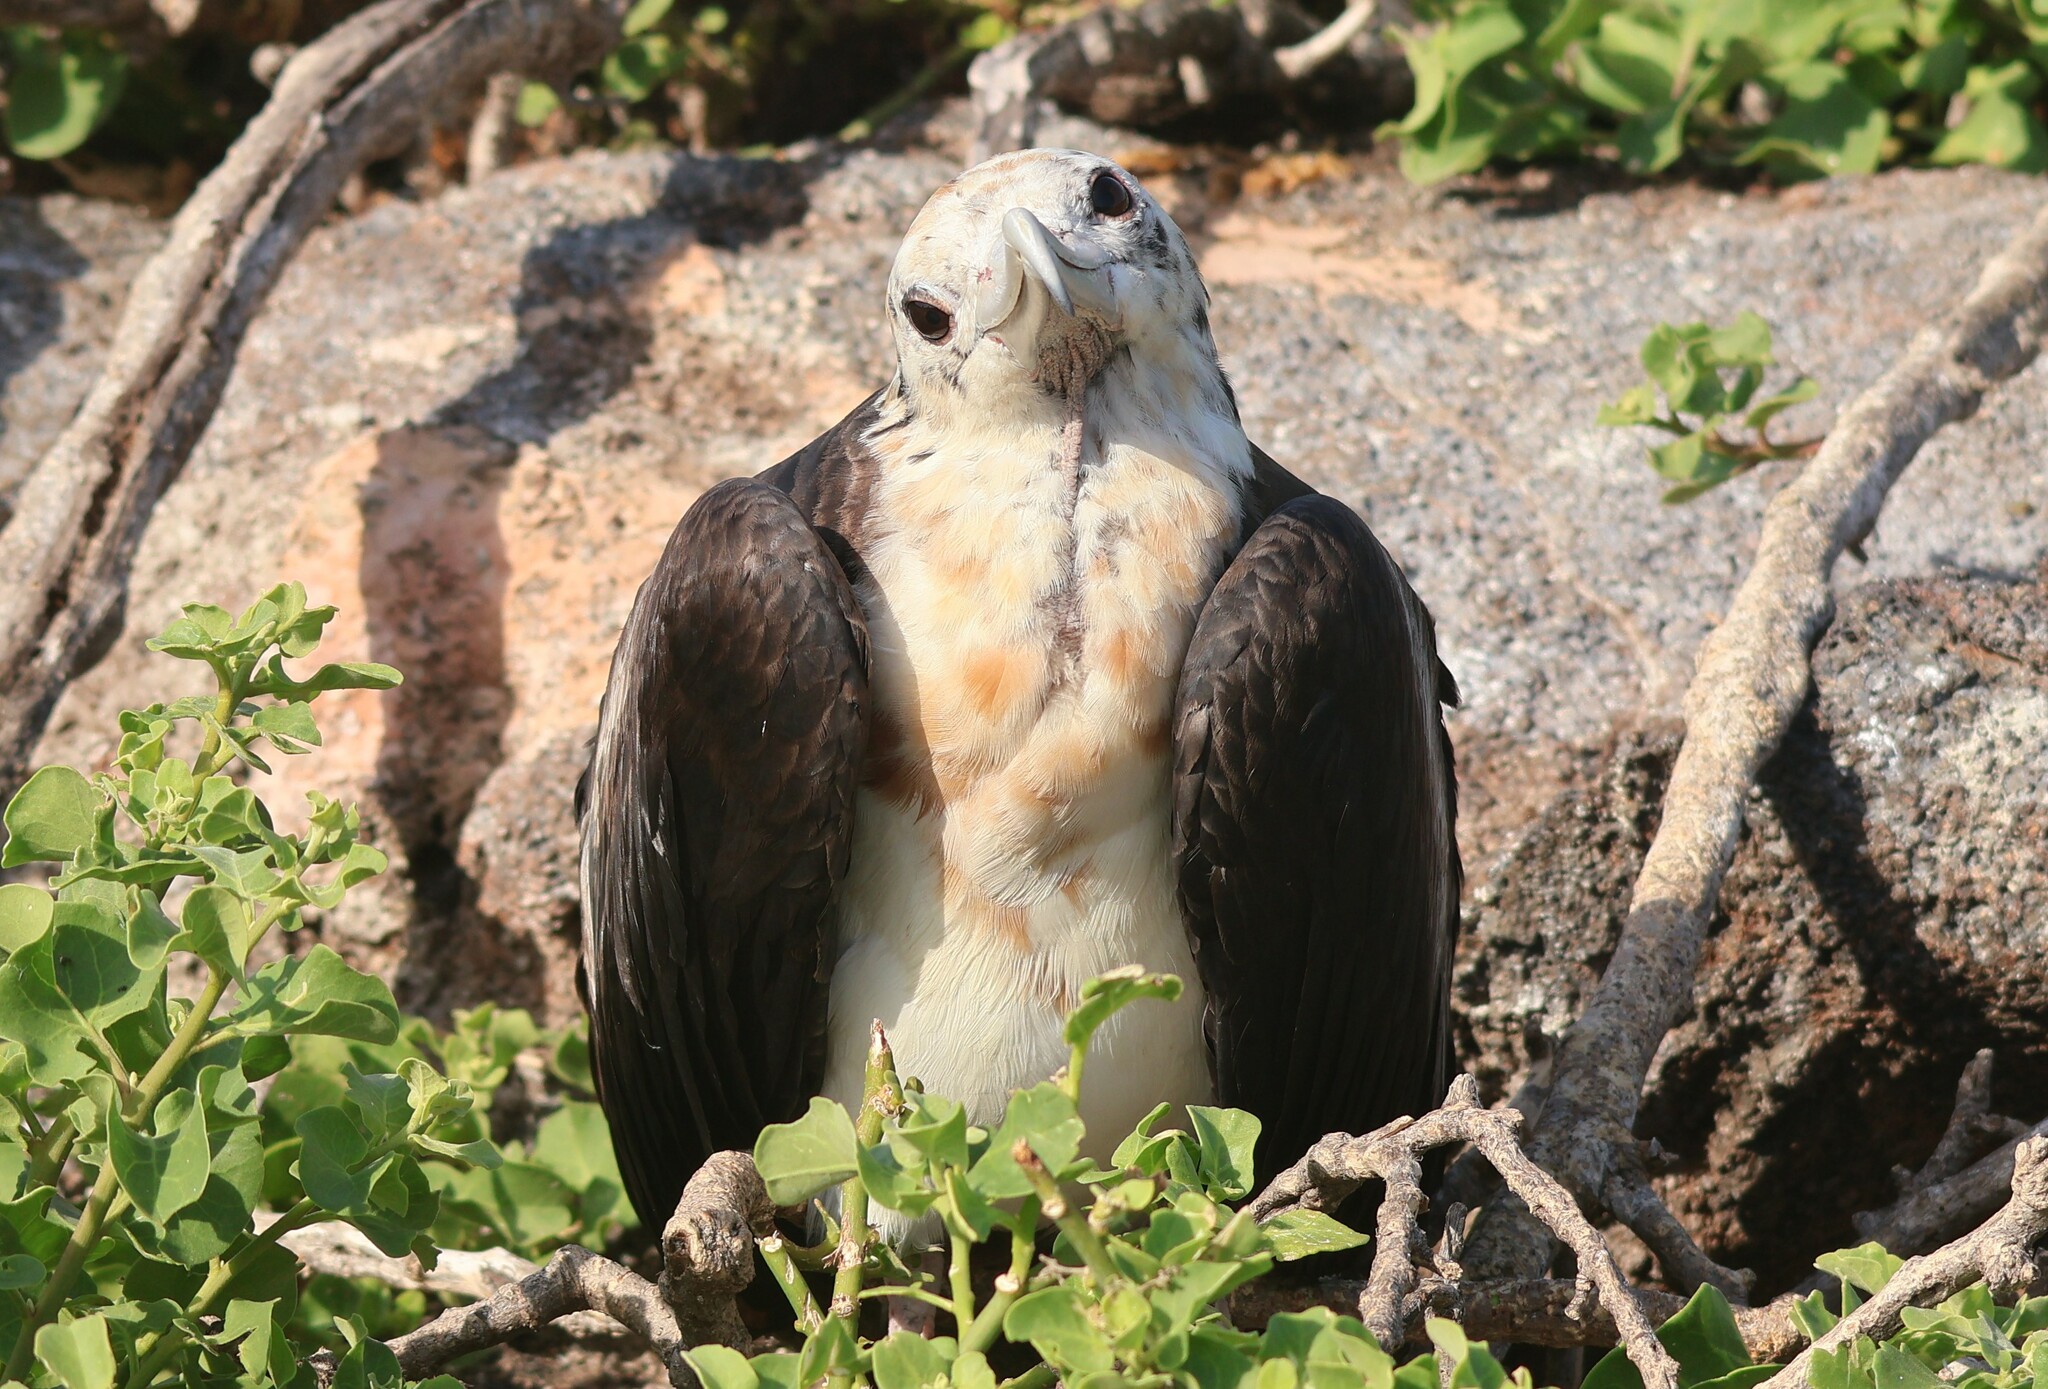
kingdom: Animalia
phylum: Chordata
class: Aves
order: Suliformes
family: Fregatidae
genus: Fregata
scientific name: Fregata minor
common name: Great frigatebird
